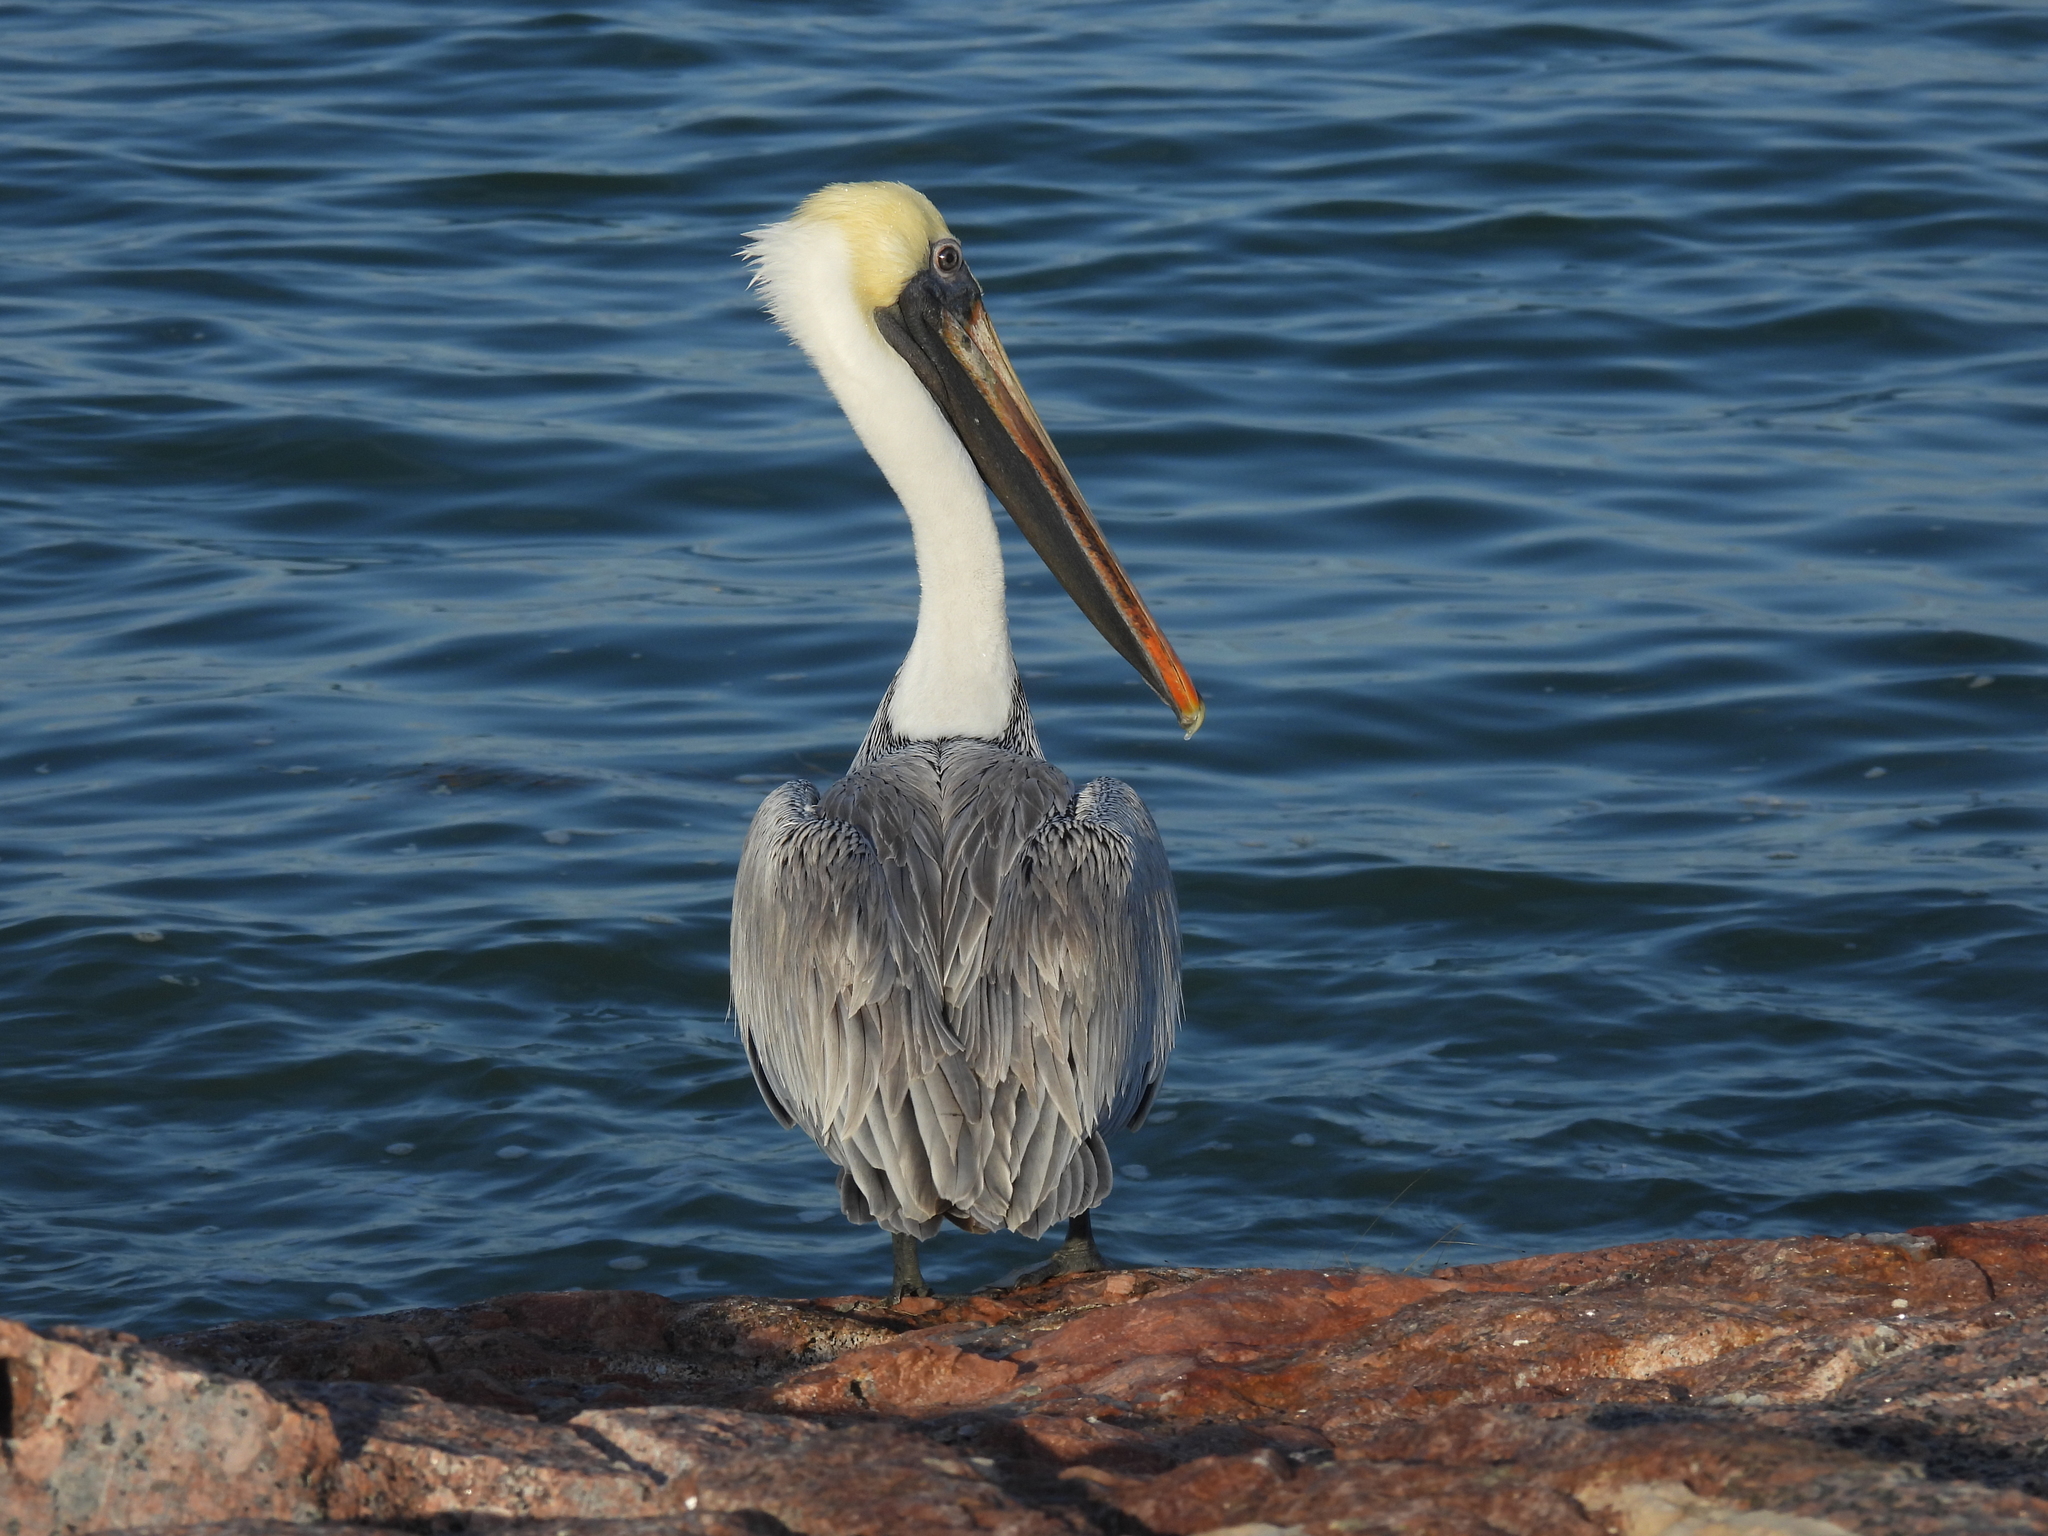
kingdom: Animalia
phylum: Chordata
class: Aves
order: Pelecaniformes
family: Pelecanidae
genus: Pelecanus
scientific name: Pelecanus occidentalis
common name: Brown pelican
